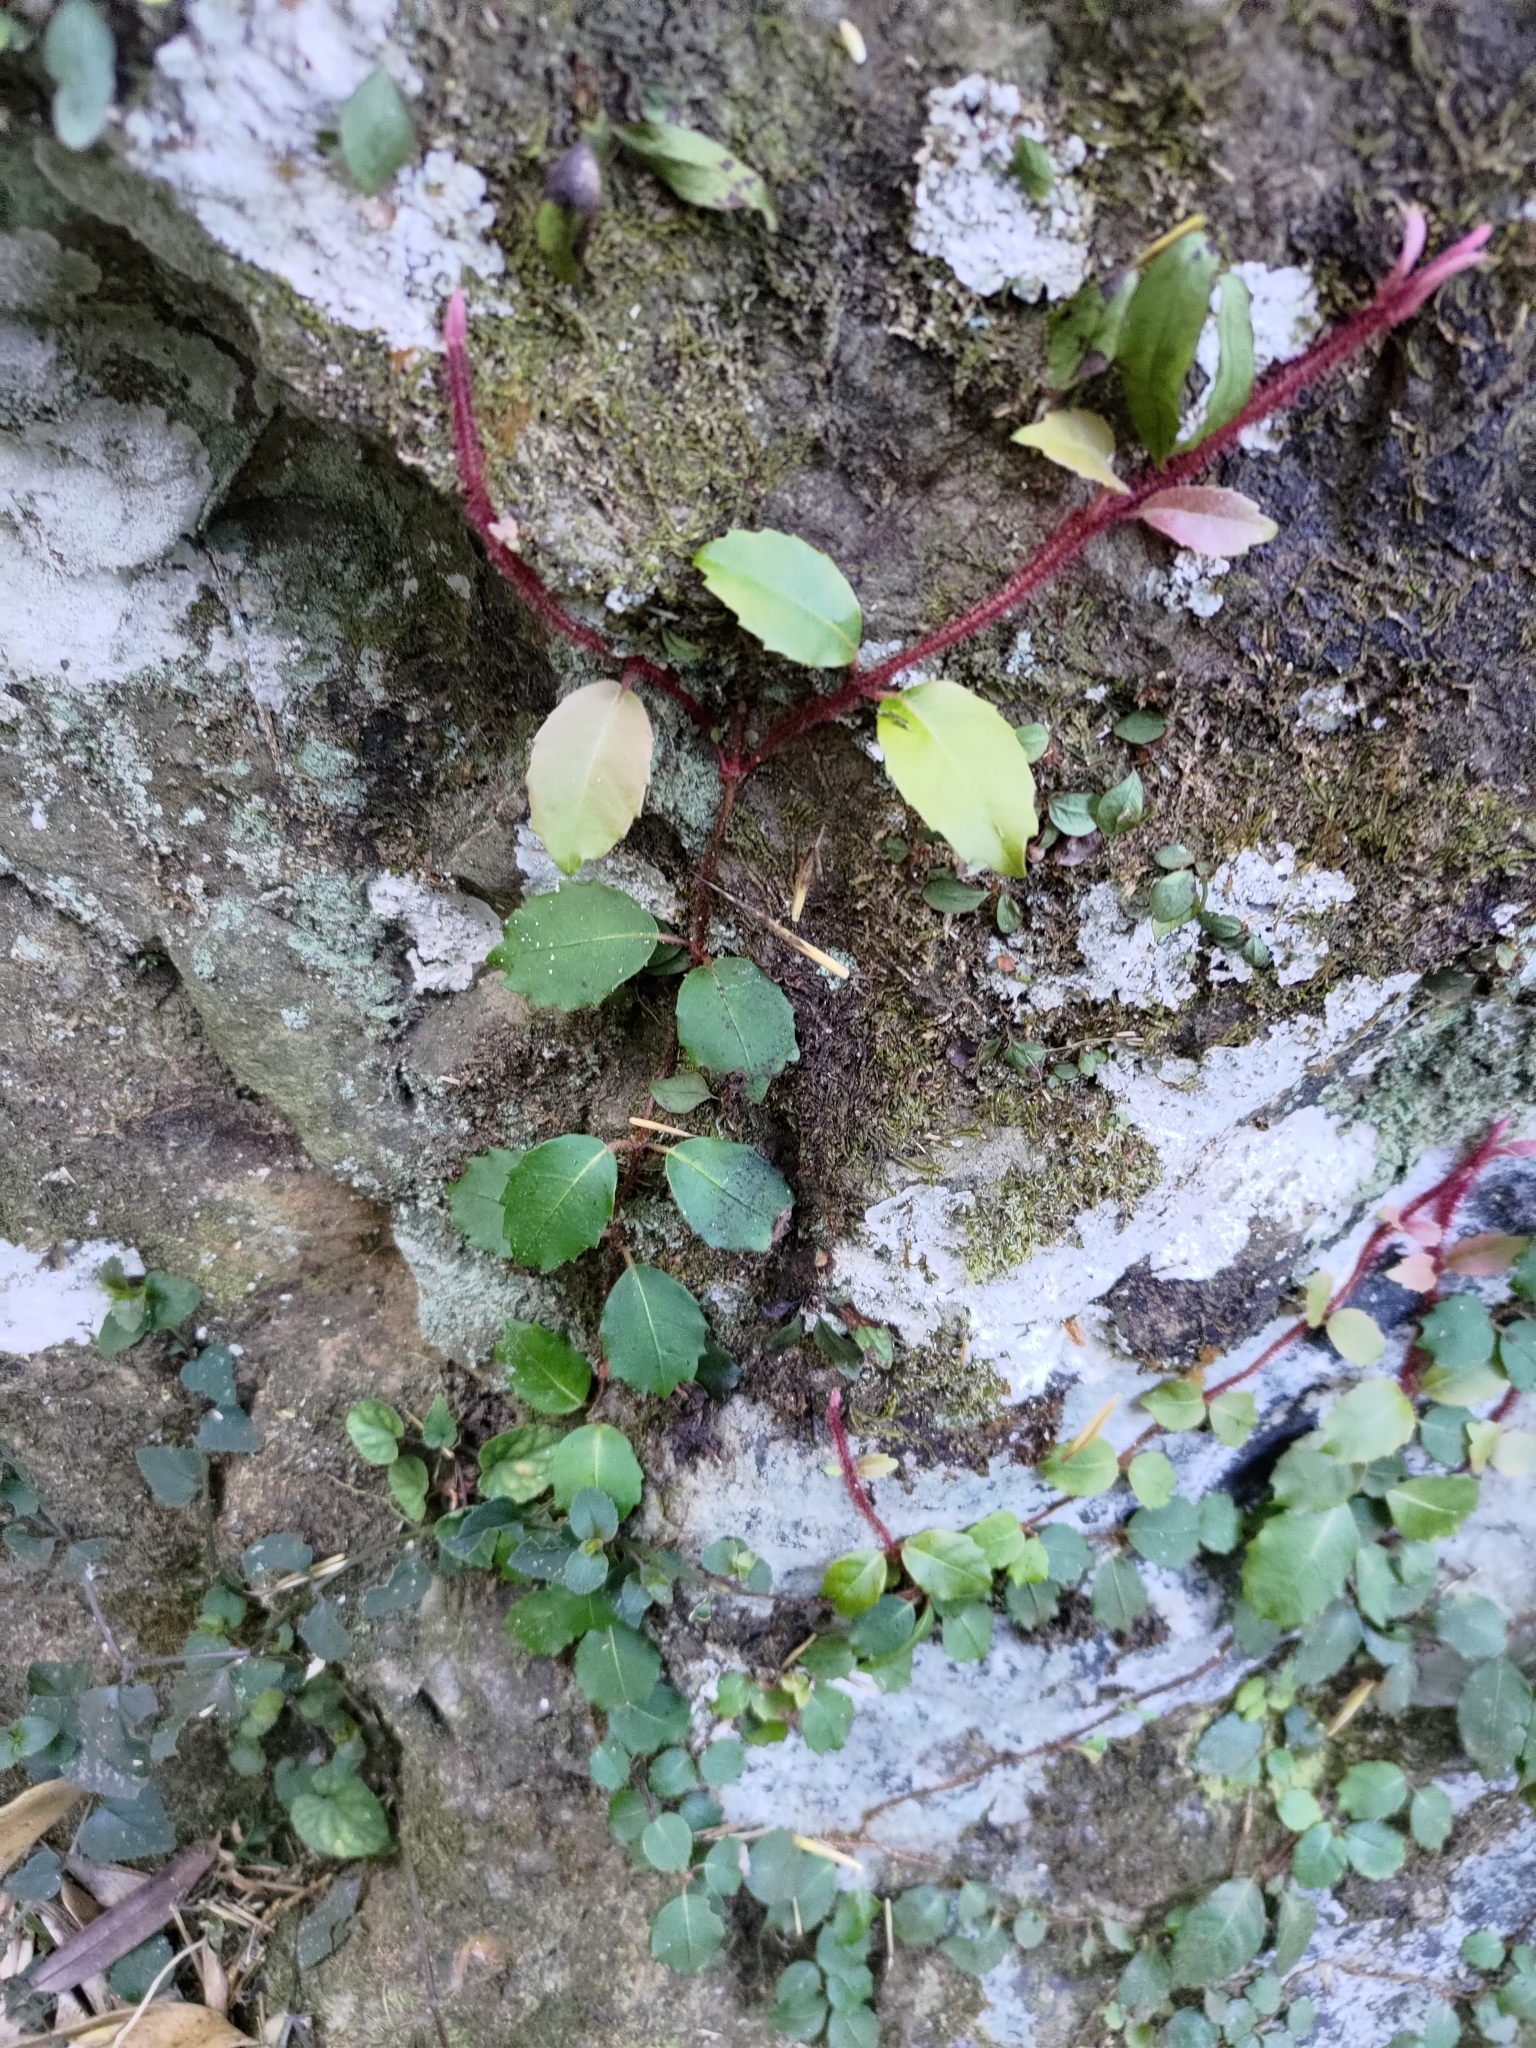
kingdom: Plantae
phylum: Tracheophyta
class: Magnoliopsida
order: Cornales
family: Hydrangeaceae
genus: Hydrangea
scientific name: Hydrangea integrifolia
